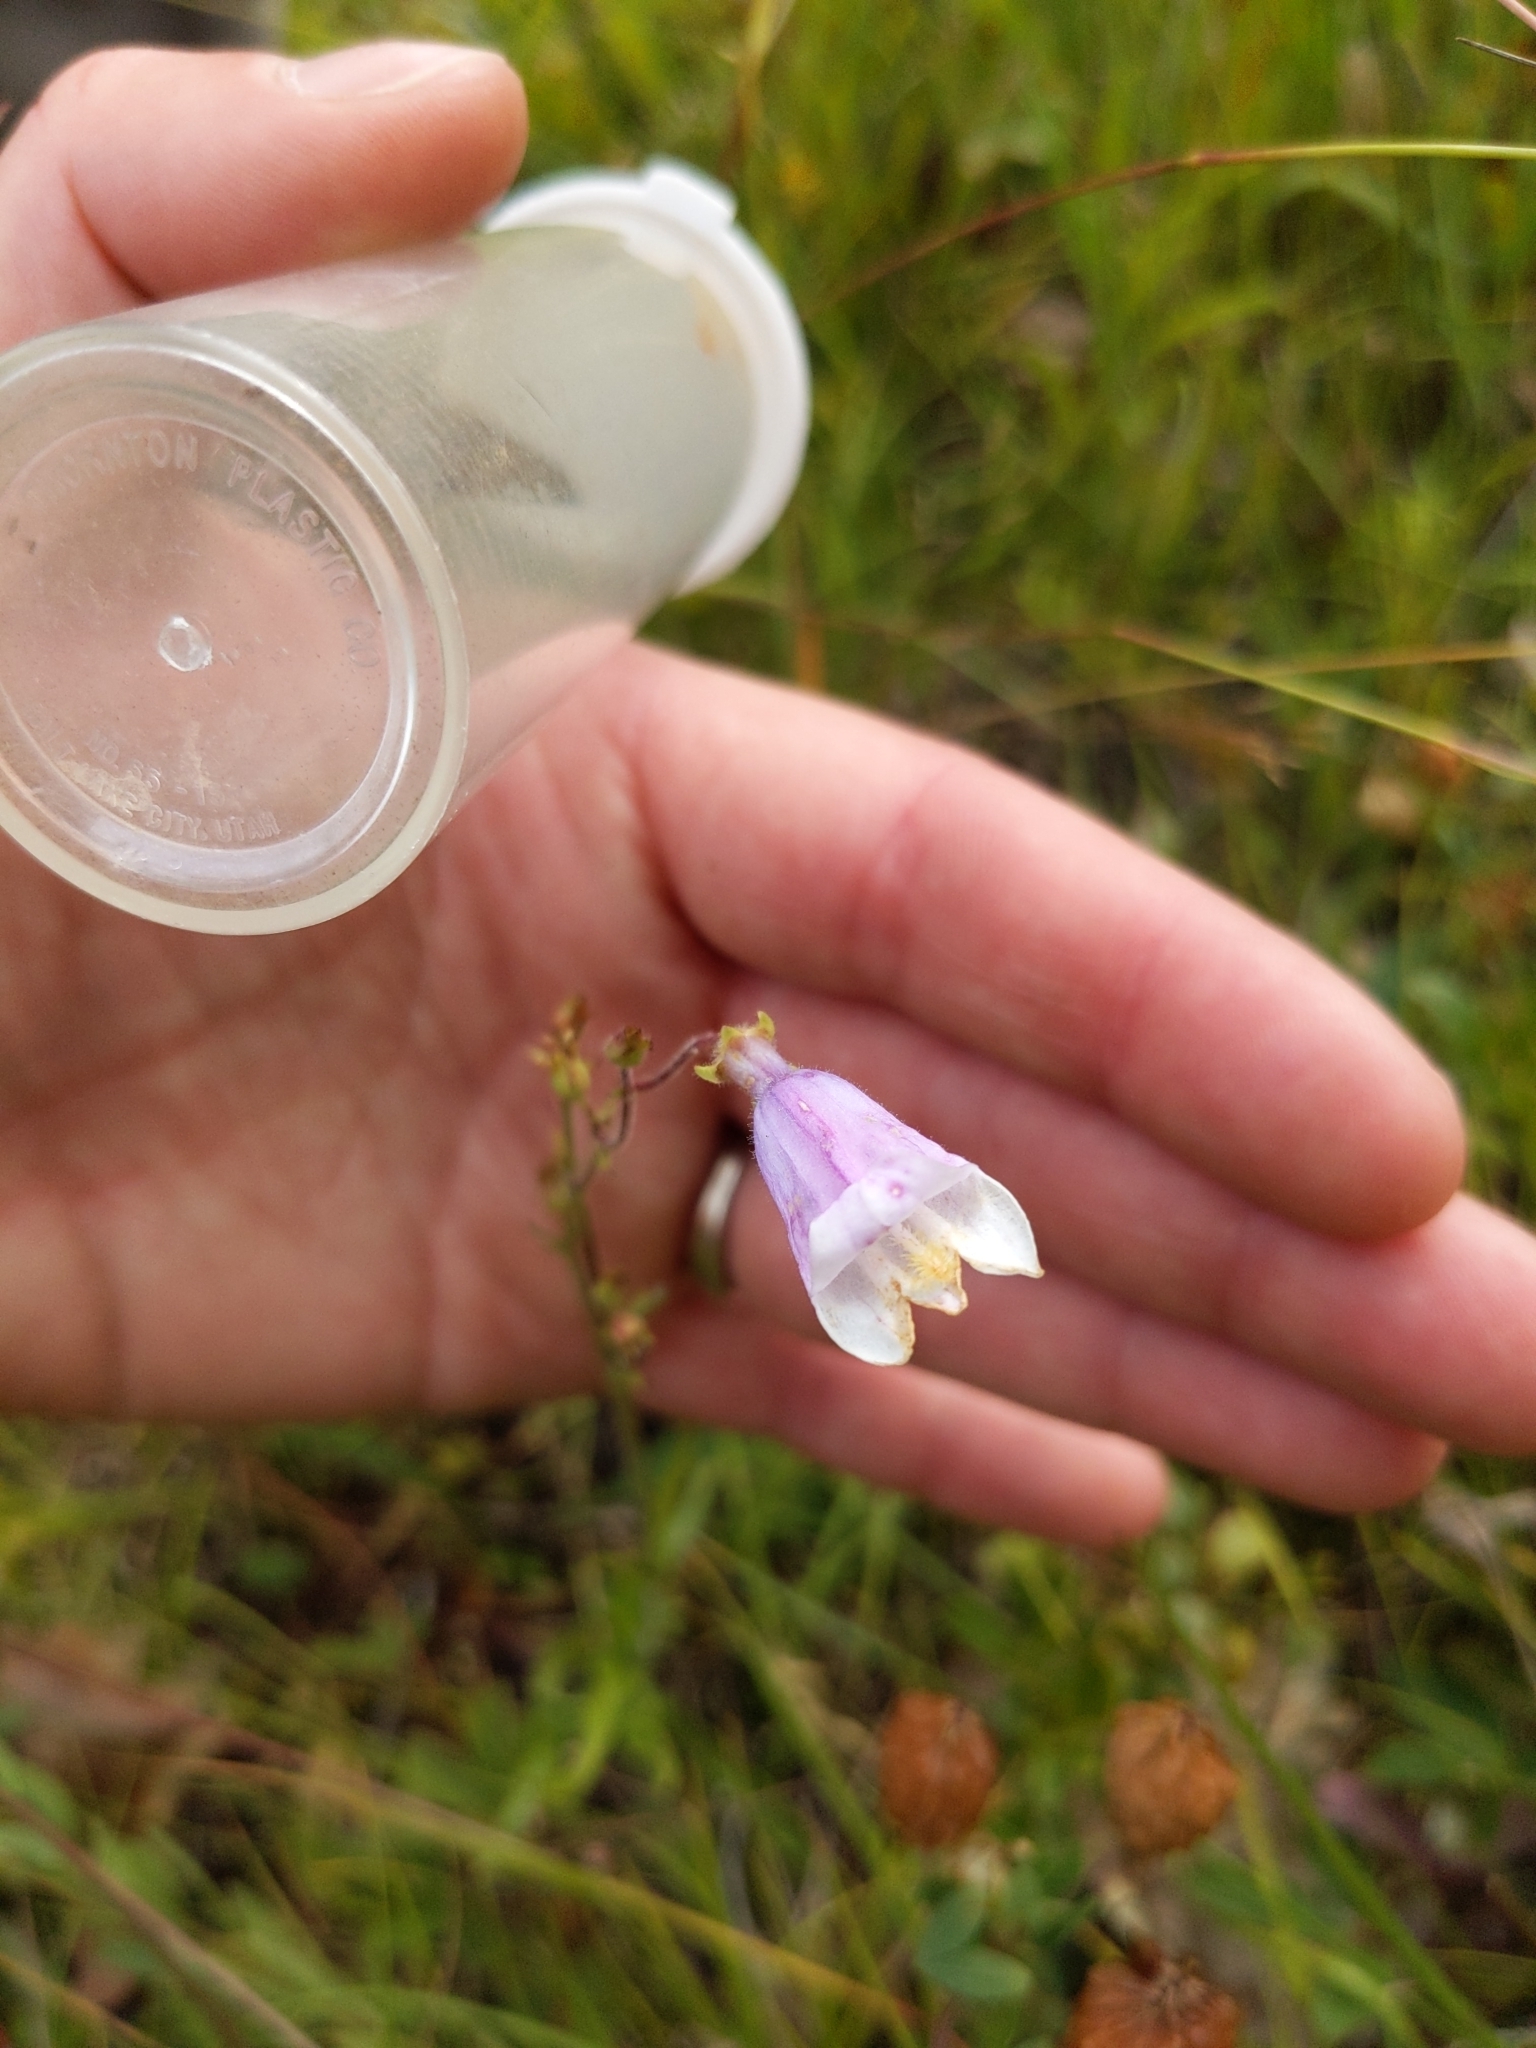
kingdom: Plantae
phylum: Tracheophyta
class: Magnoliopsida
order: Lamiales
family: Plantaginaceae
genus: Penstemon
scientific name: Penstemon hirsutus
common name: Hairy beardtongue
